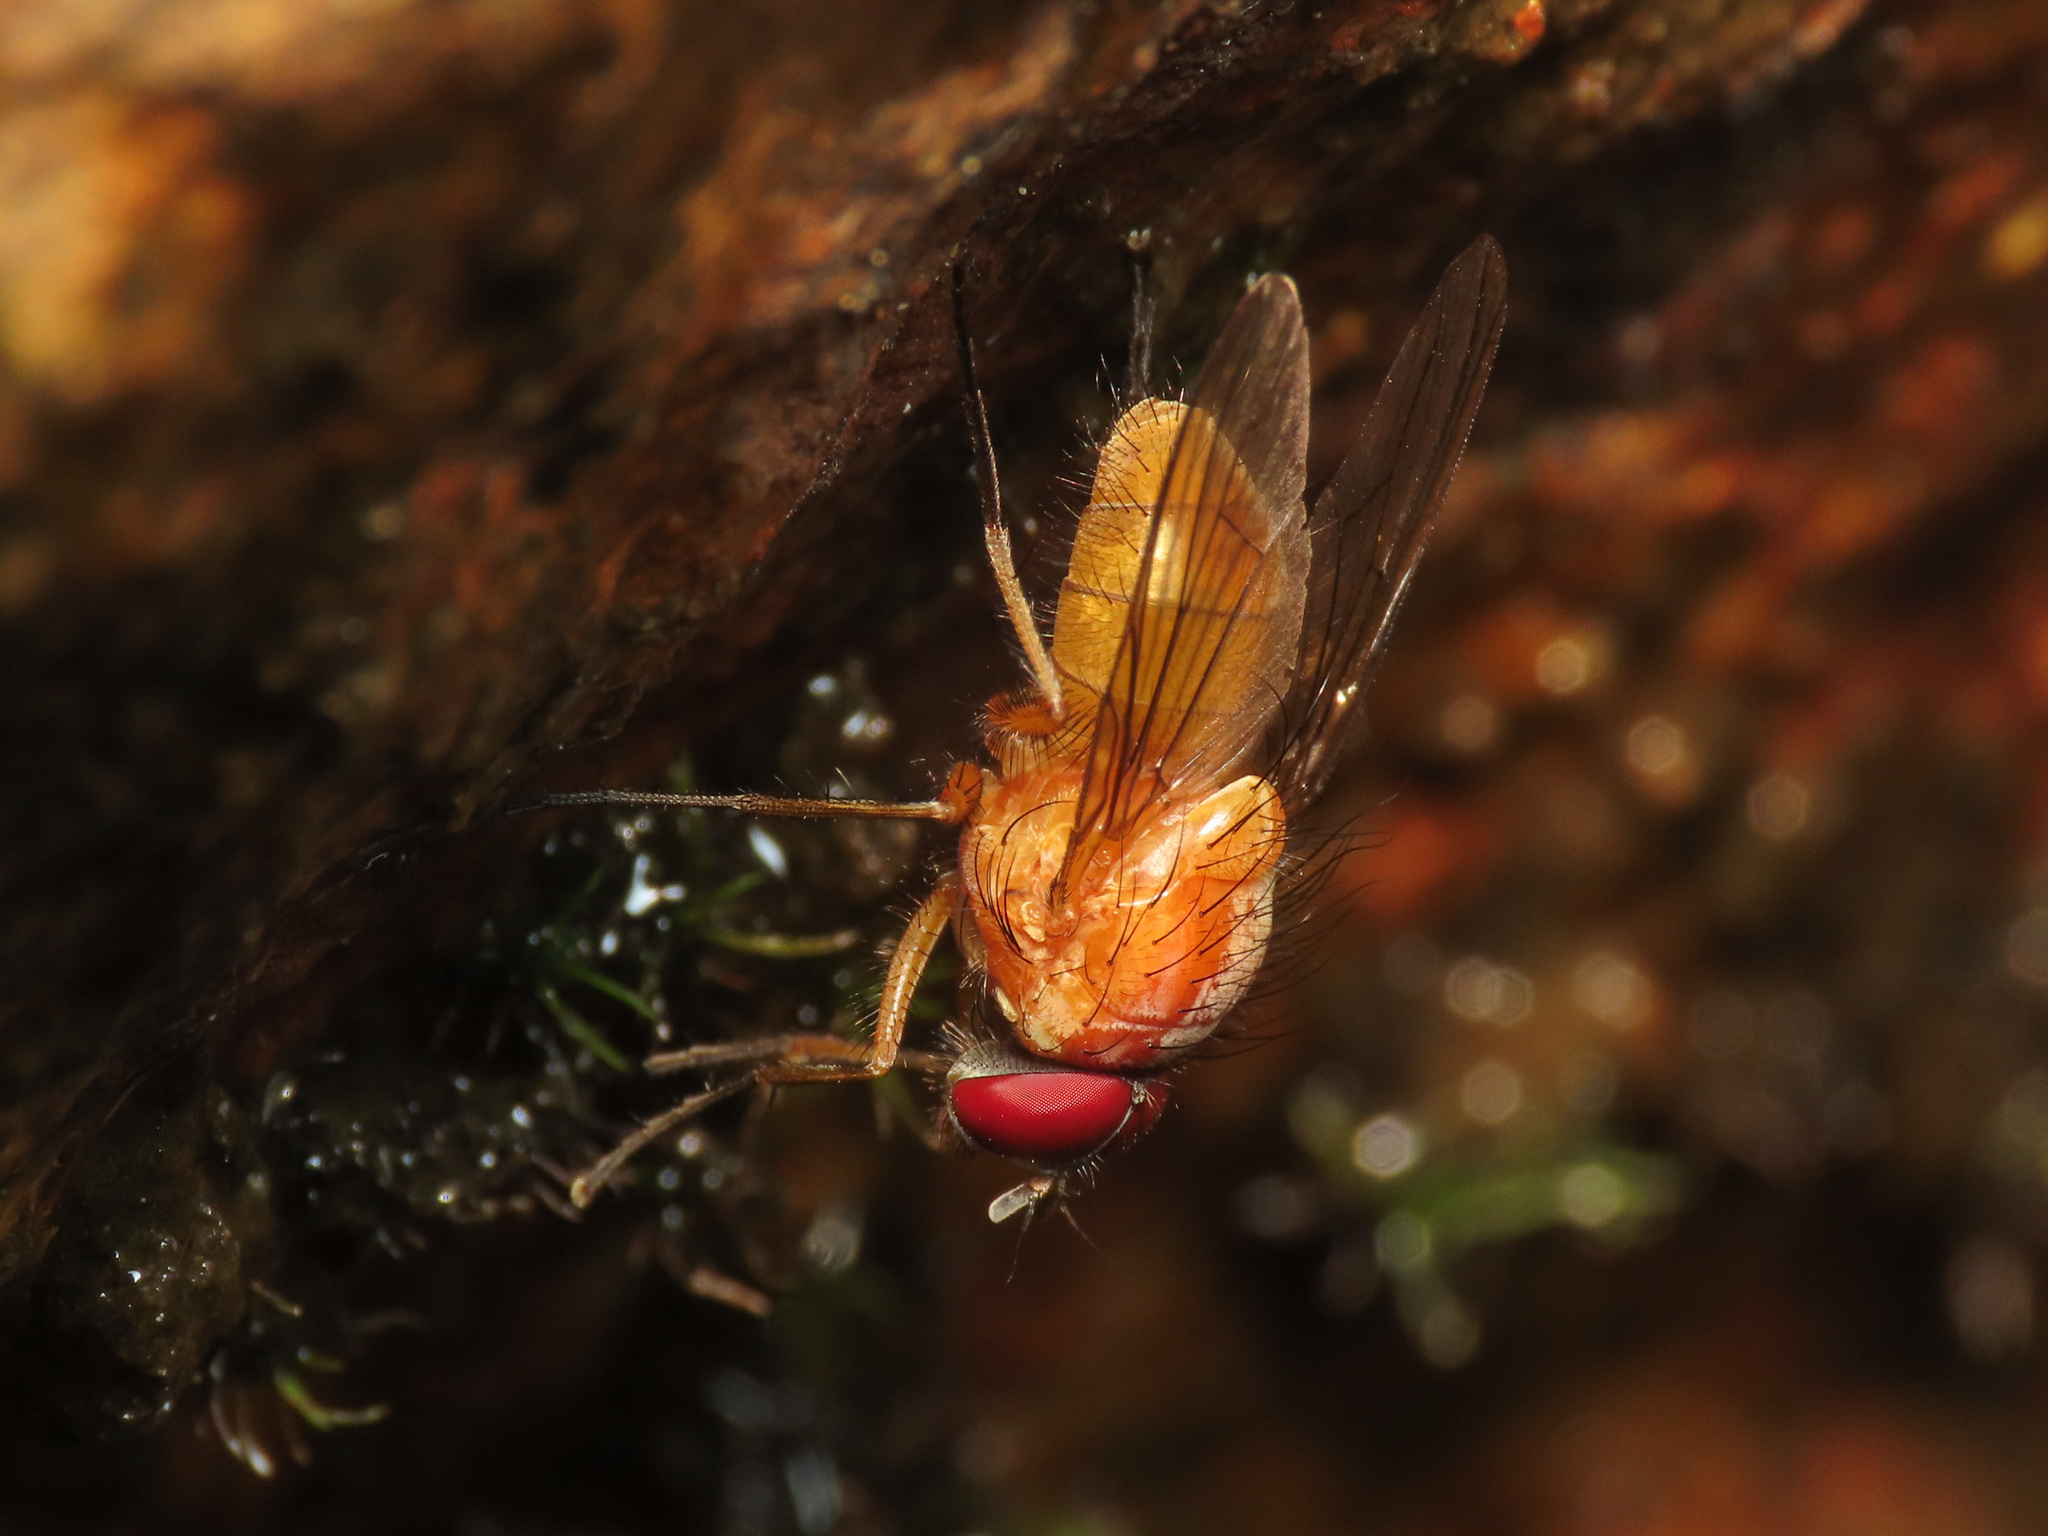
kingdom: Animalia
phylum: Arthropoda
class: Insecta
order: Diptera
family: Muscidae
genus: Phaonia
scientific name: Phaonia pallida
